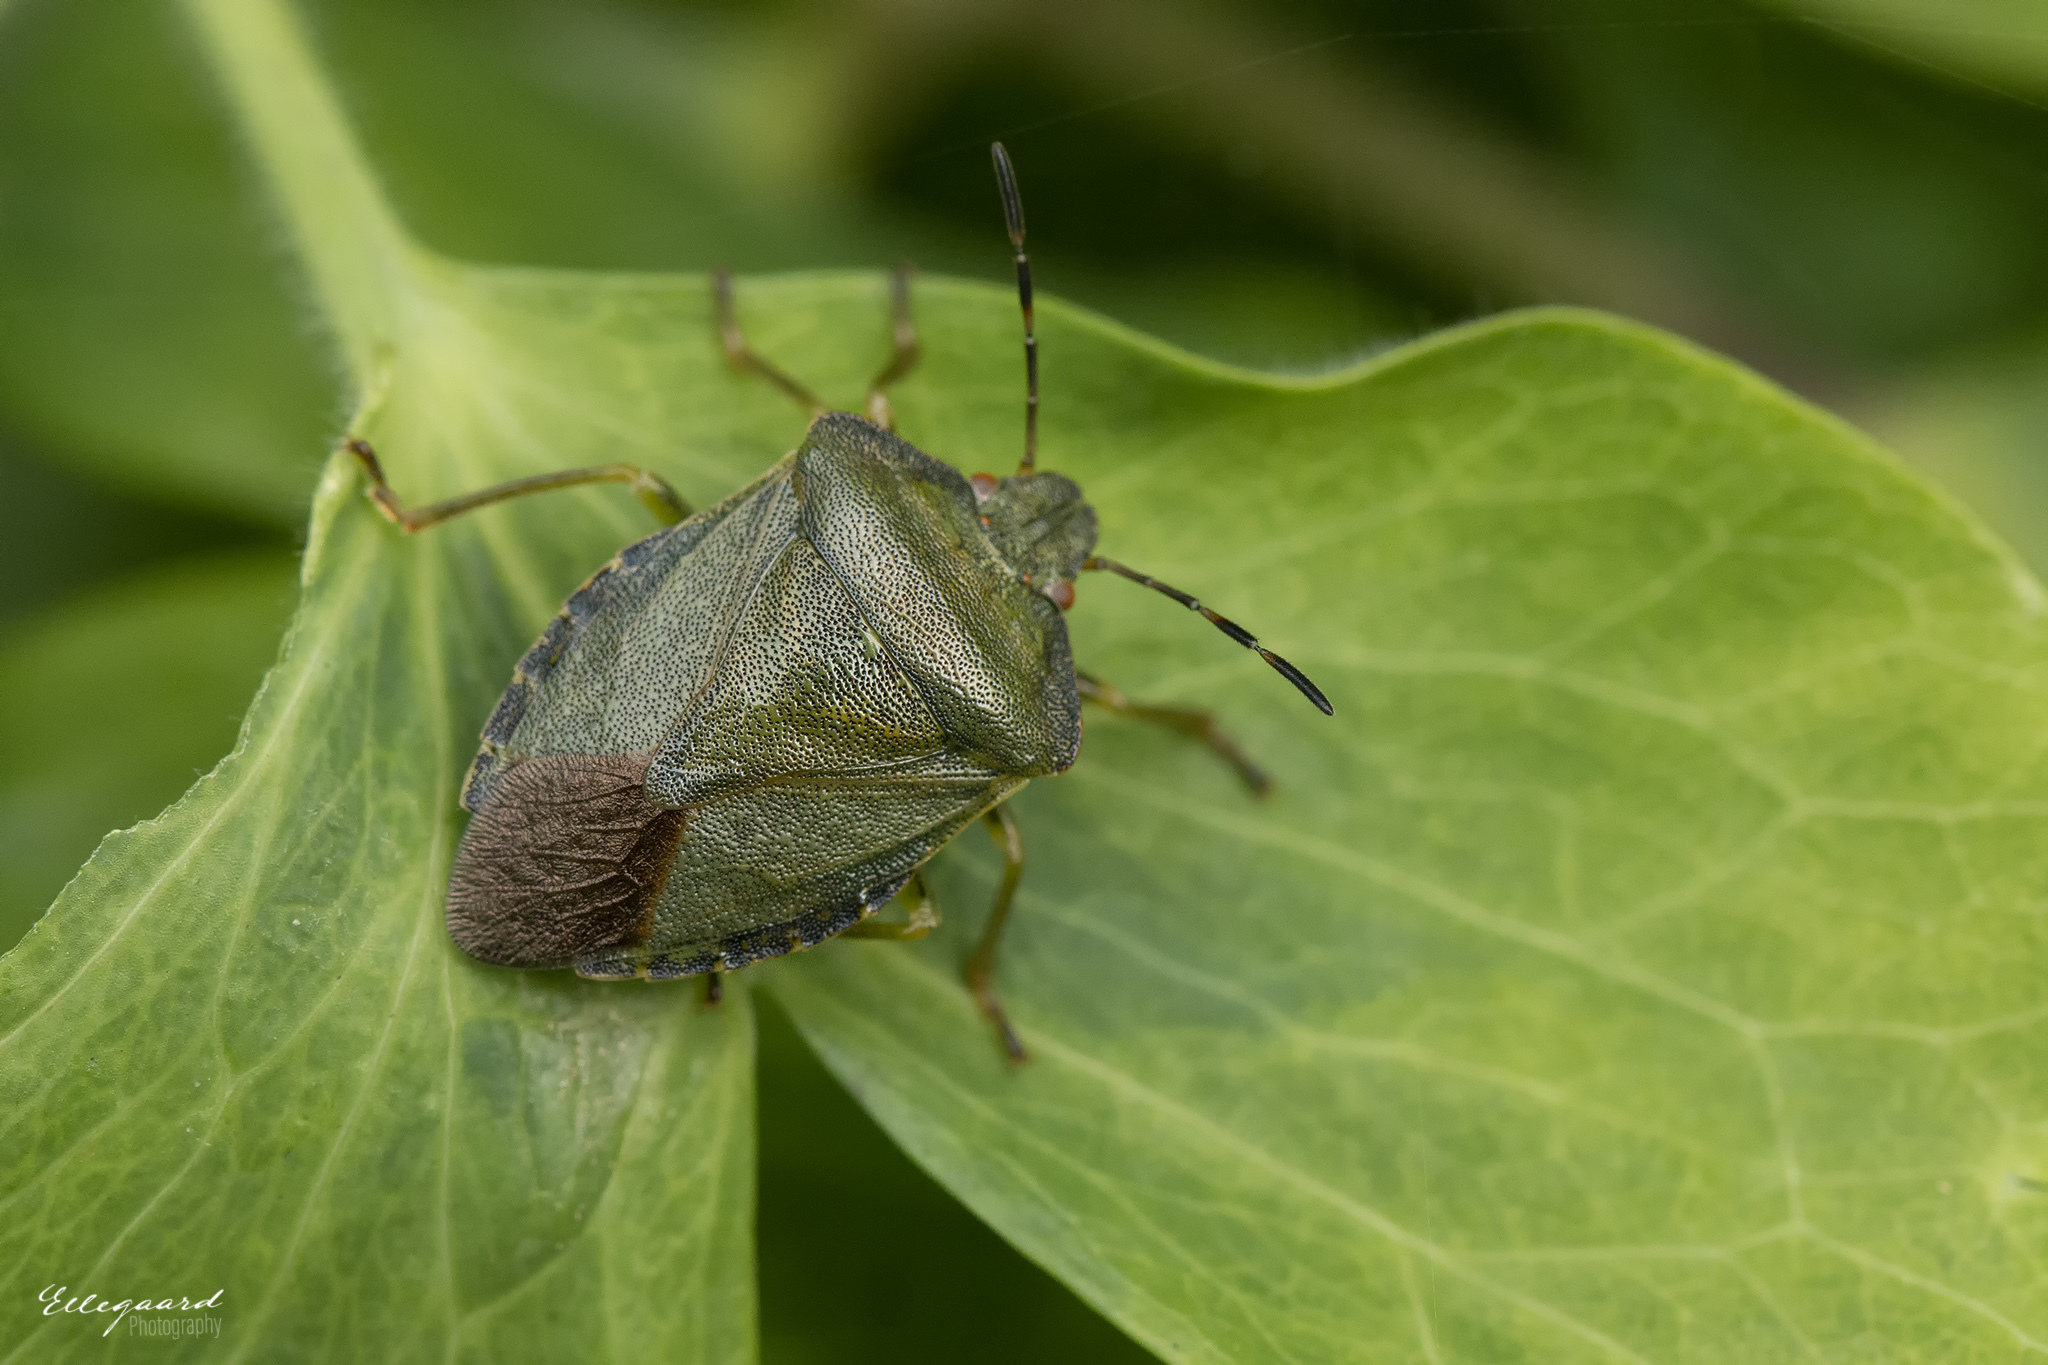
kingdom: Animalia
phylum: Arthropoda
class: Insecta
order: Hemiptera
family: Pentatomidae
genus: Palomena
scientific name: Palomena prasina
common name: Green shieldbug
